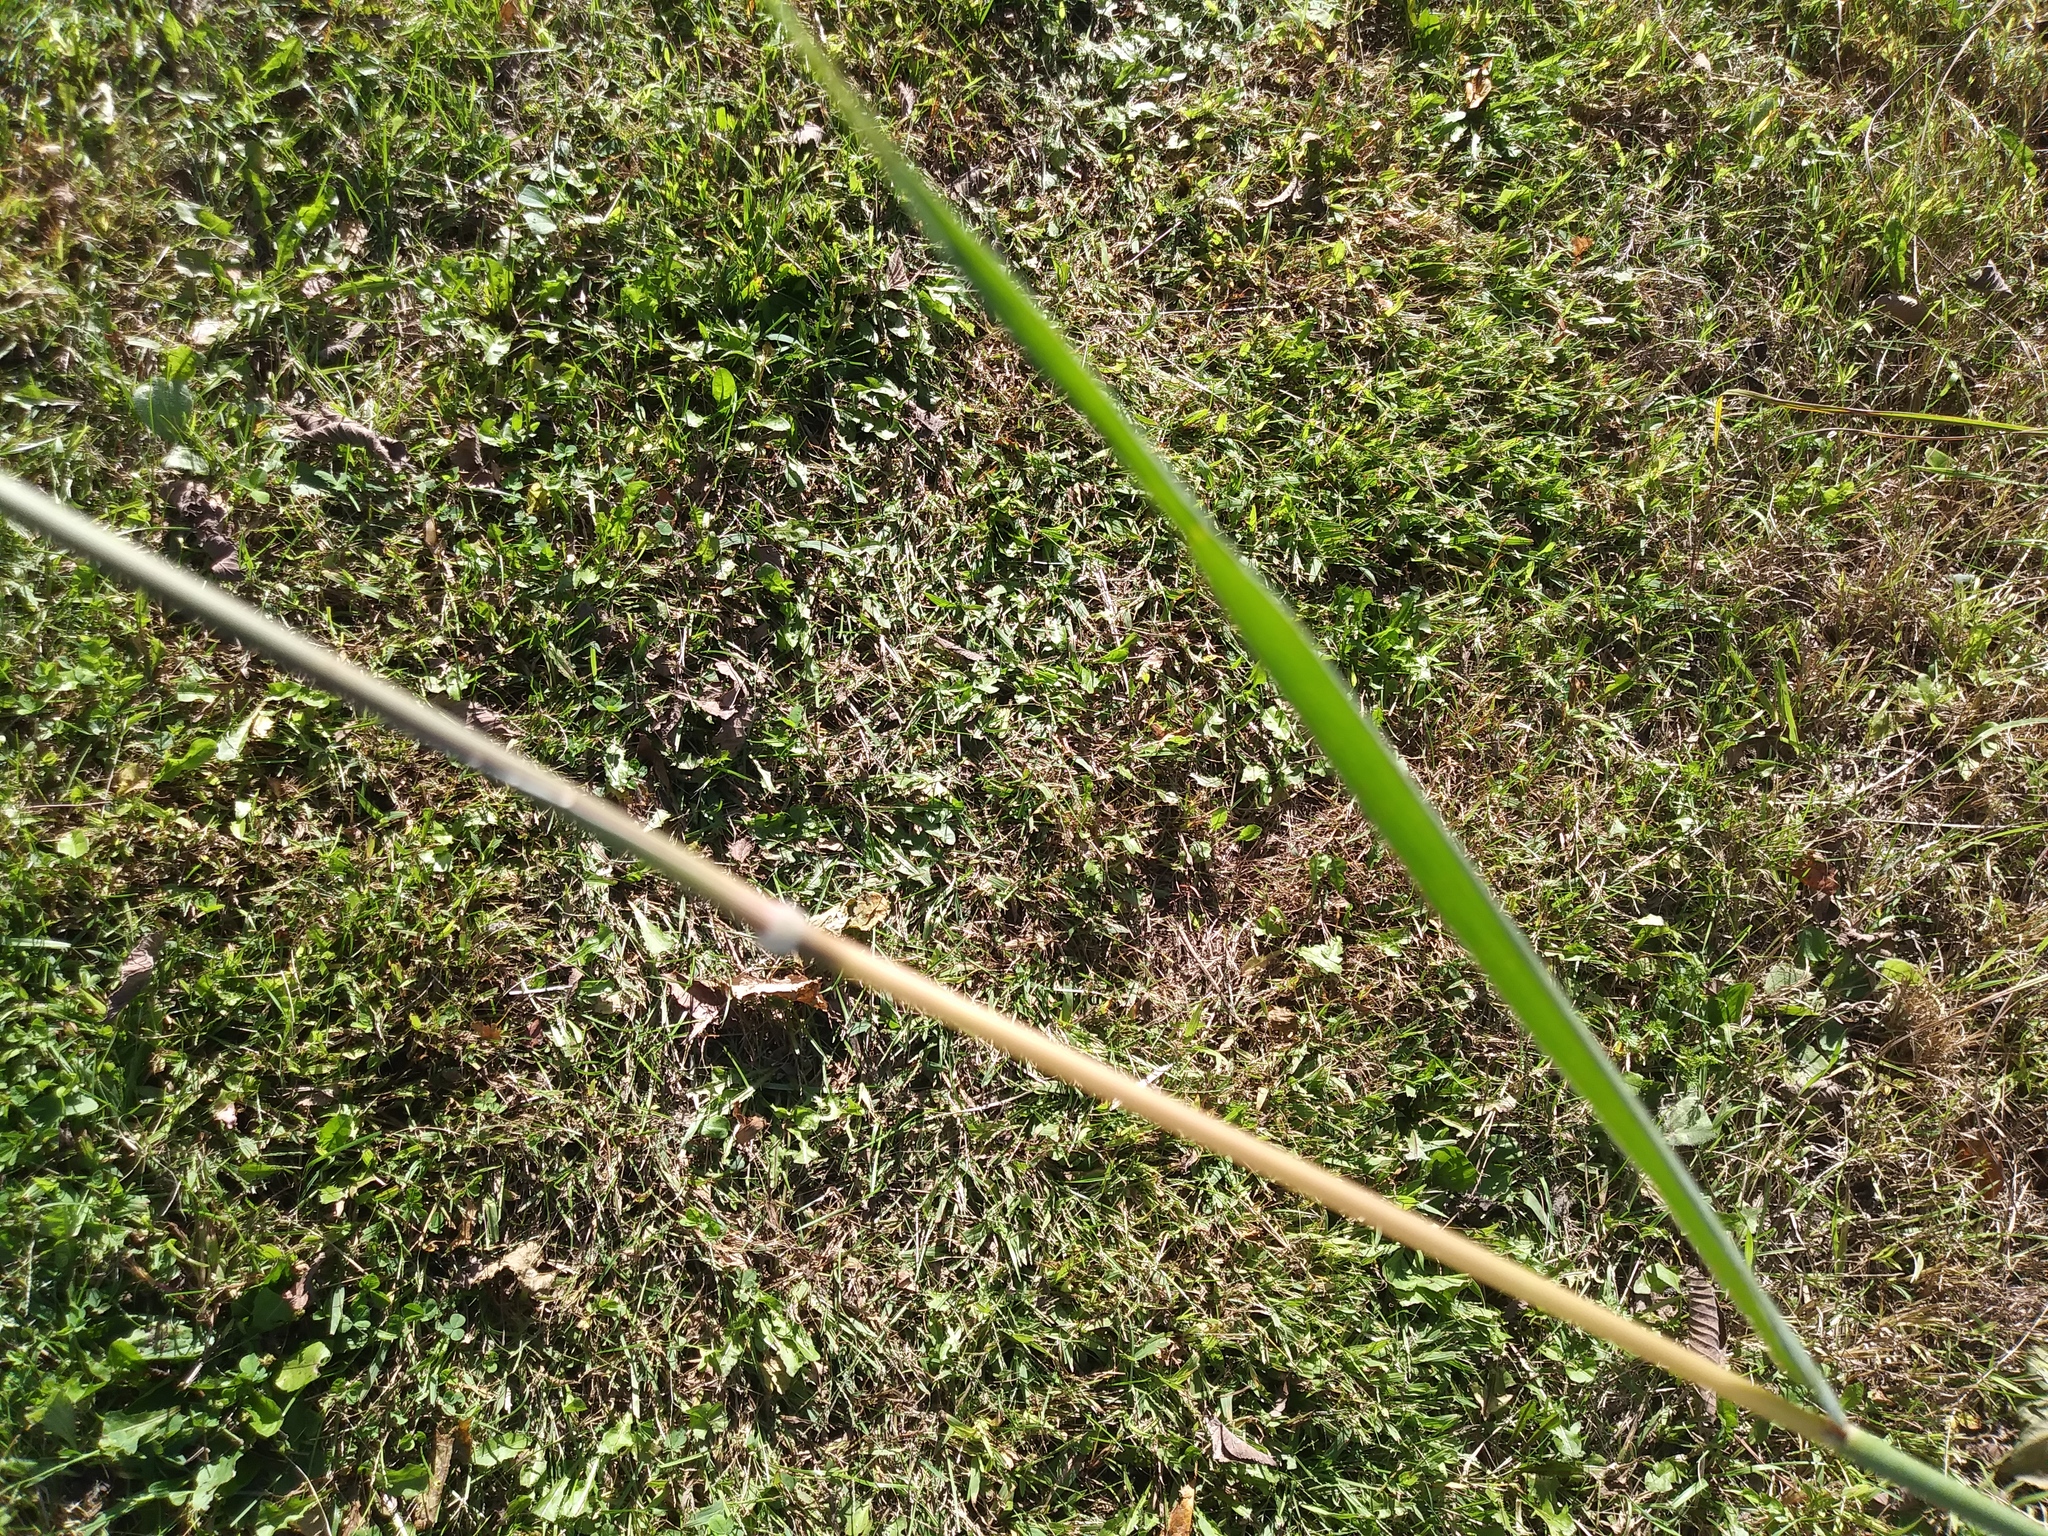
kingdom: Plantae
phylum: Tracheophyta
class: Liliopsida
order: Poales
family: Poaceae
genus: Sorghastrum
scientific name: Sorghastrum nutans
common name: Indian grass
